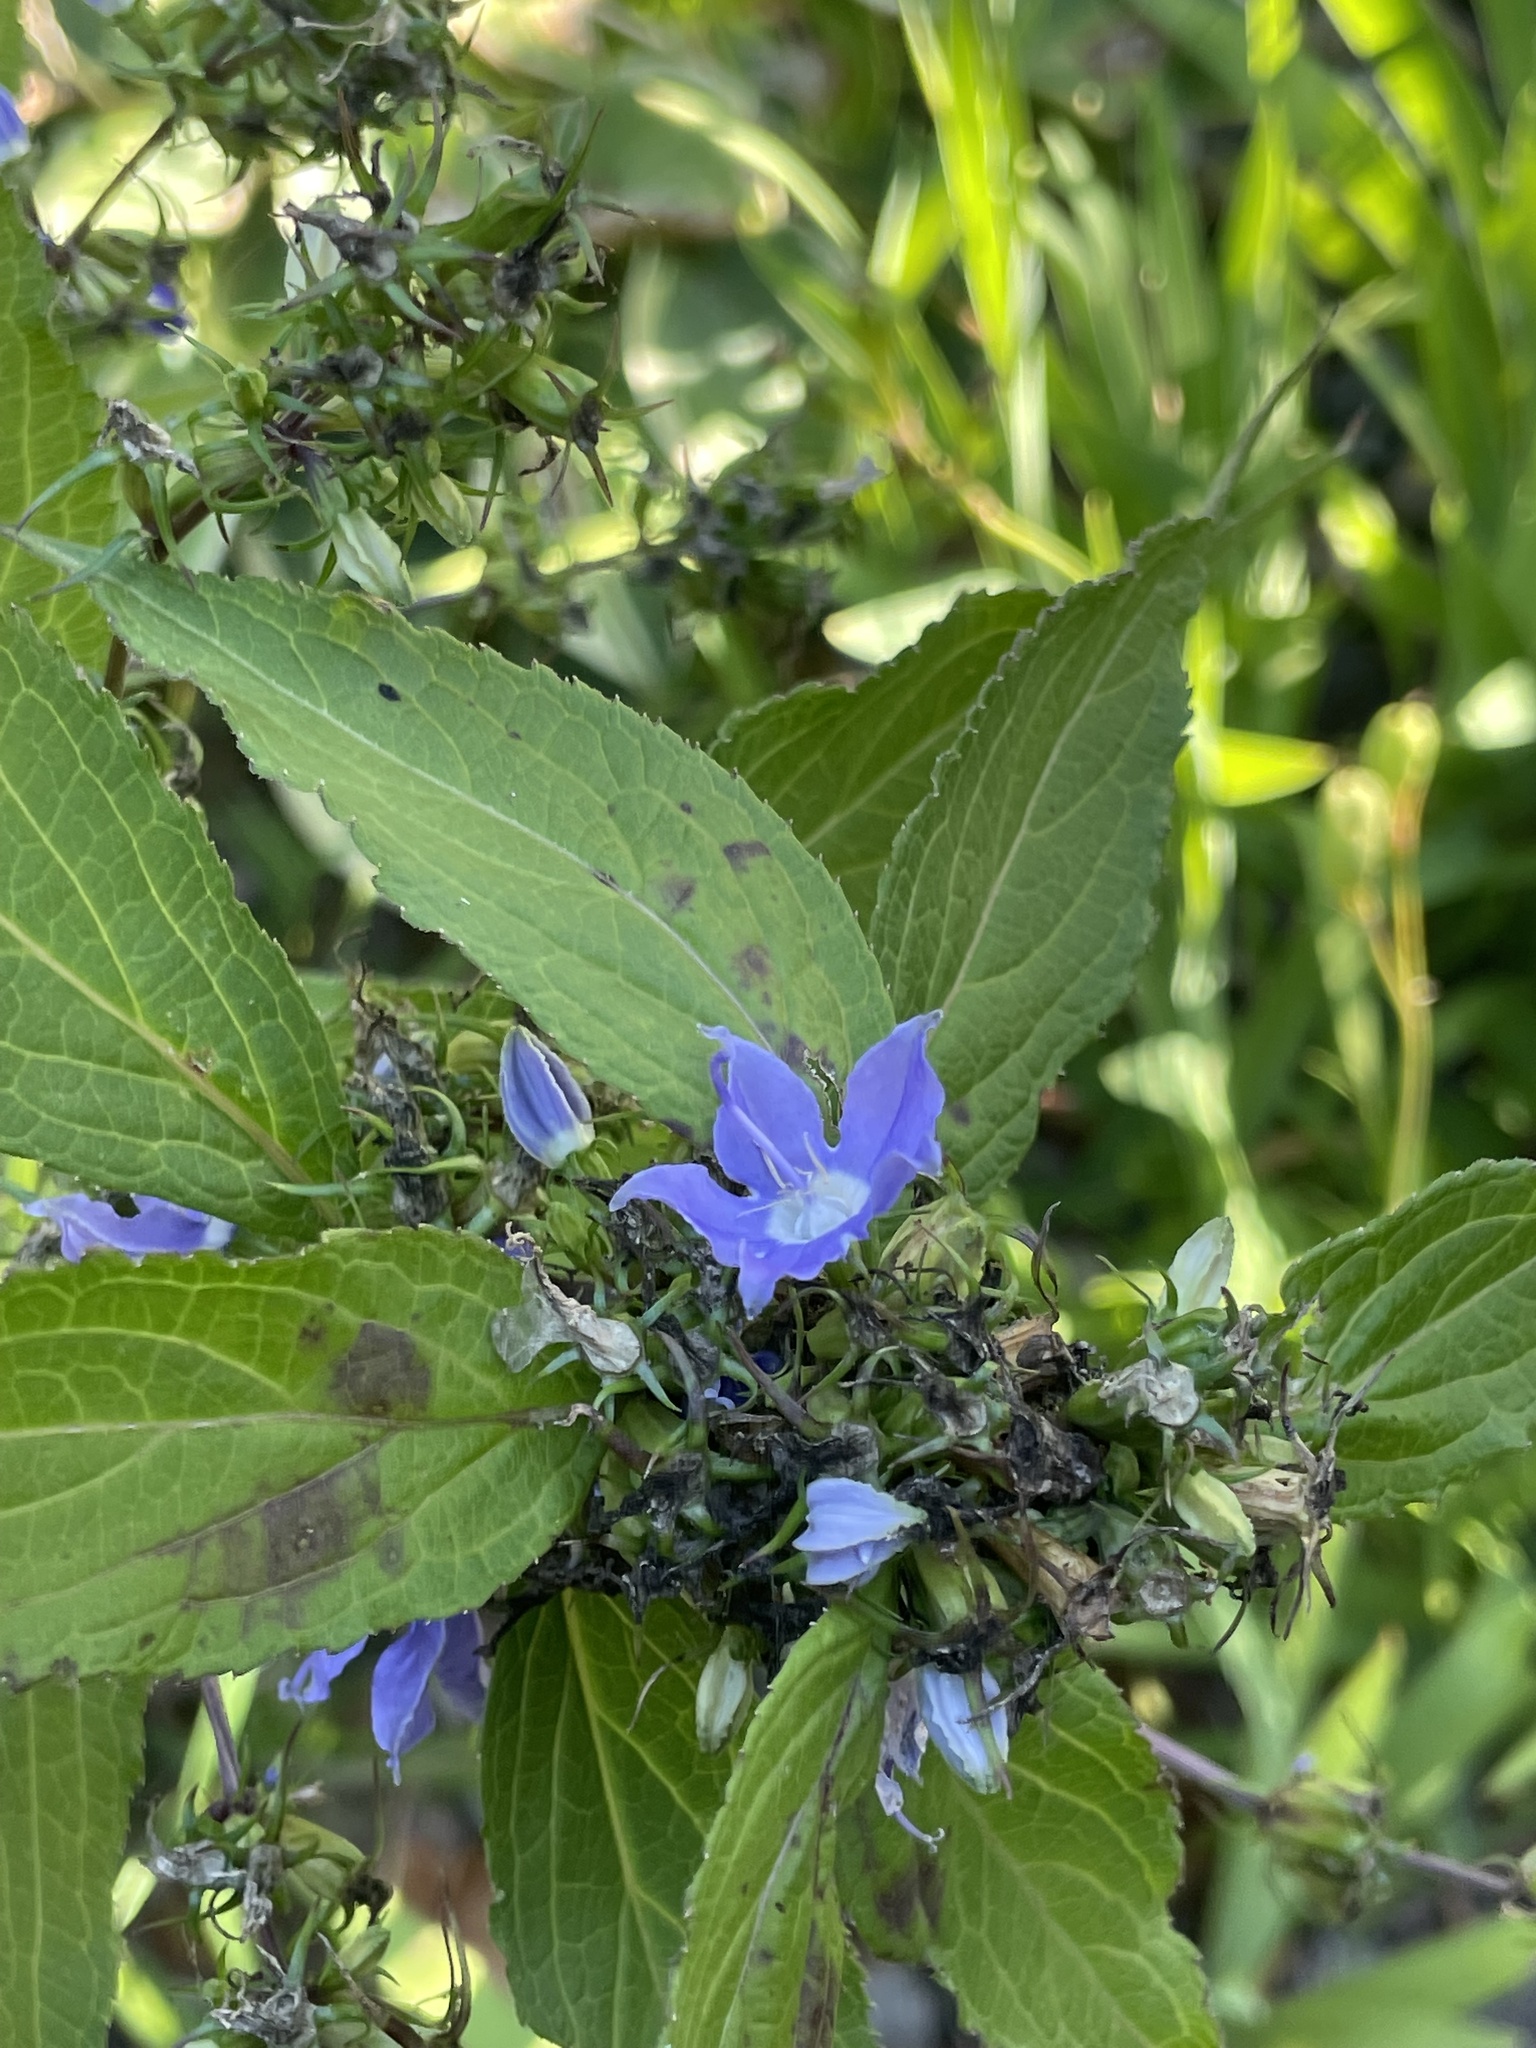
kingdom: Plantae
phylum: Tracheophyta
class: Magnoliopsida
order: Asterales
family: Campanulaceae
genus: Campanulastrum
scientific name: Campanulastrum americanum
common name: American bellflower
